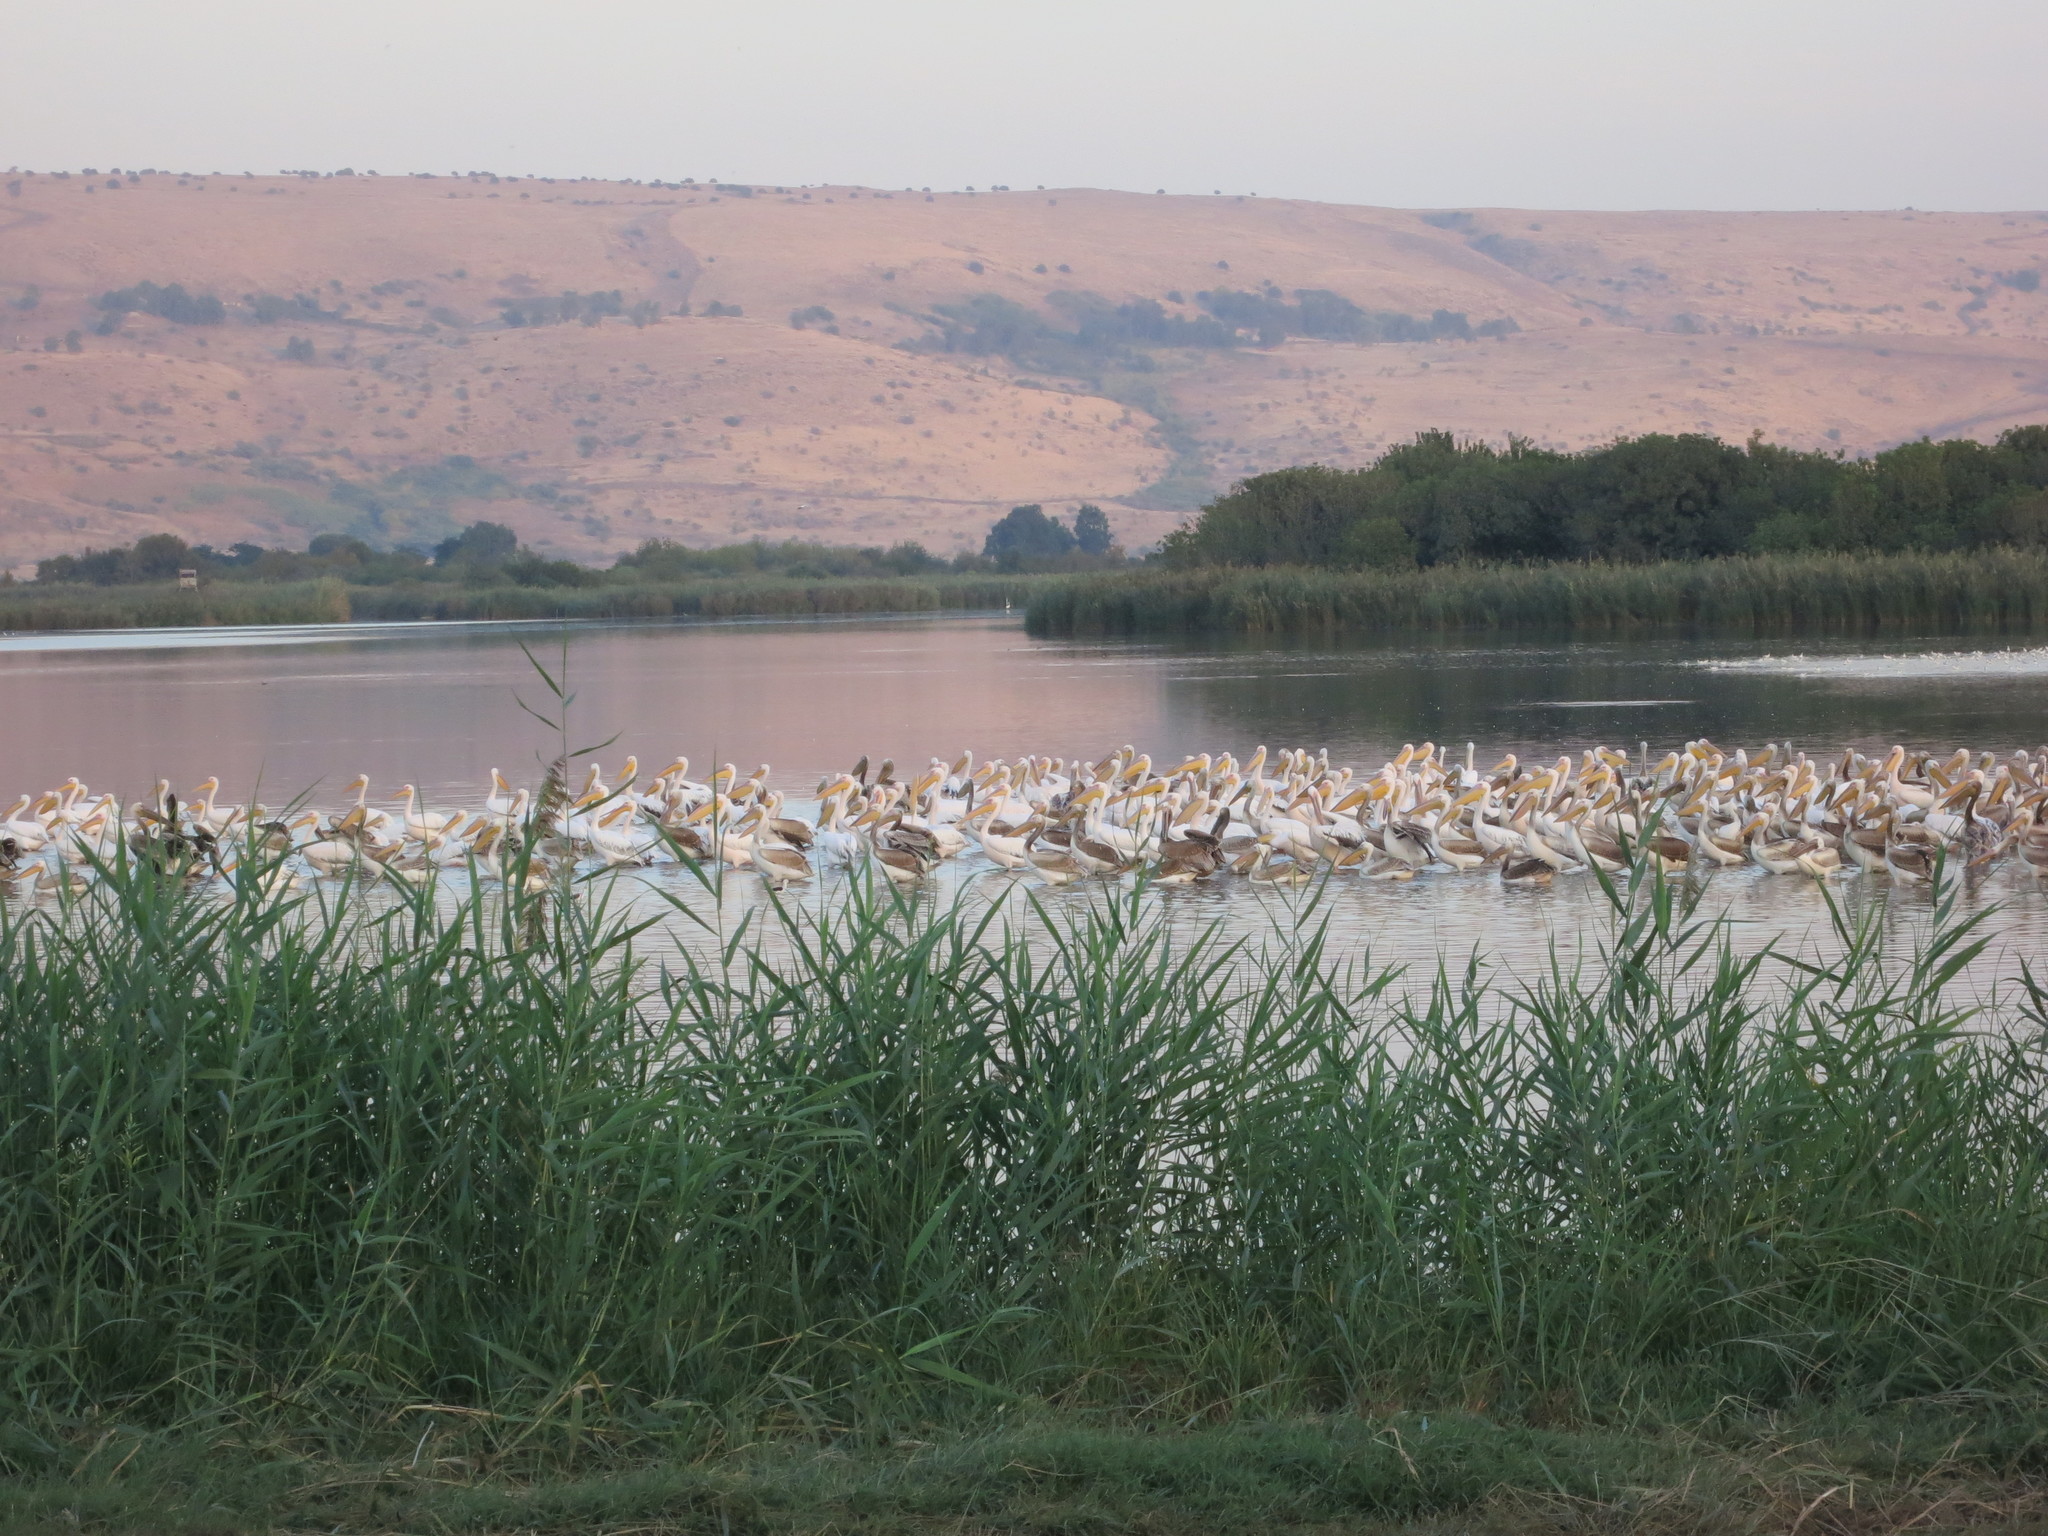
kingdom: Animalia
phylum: Chordata
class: Aves
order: Pelecaniformes
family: Pelecanidae
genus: Pelecanus
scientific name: Pelecanus onocrotalus
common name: Great white pelican
